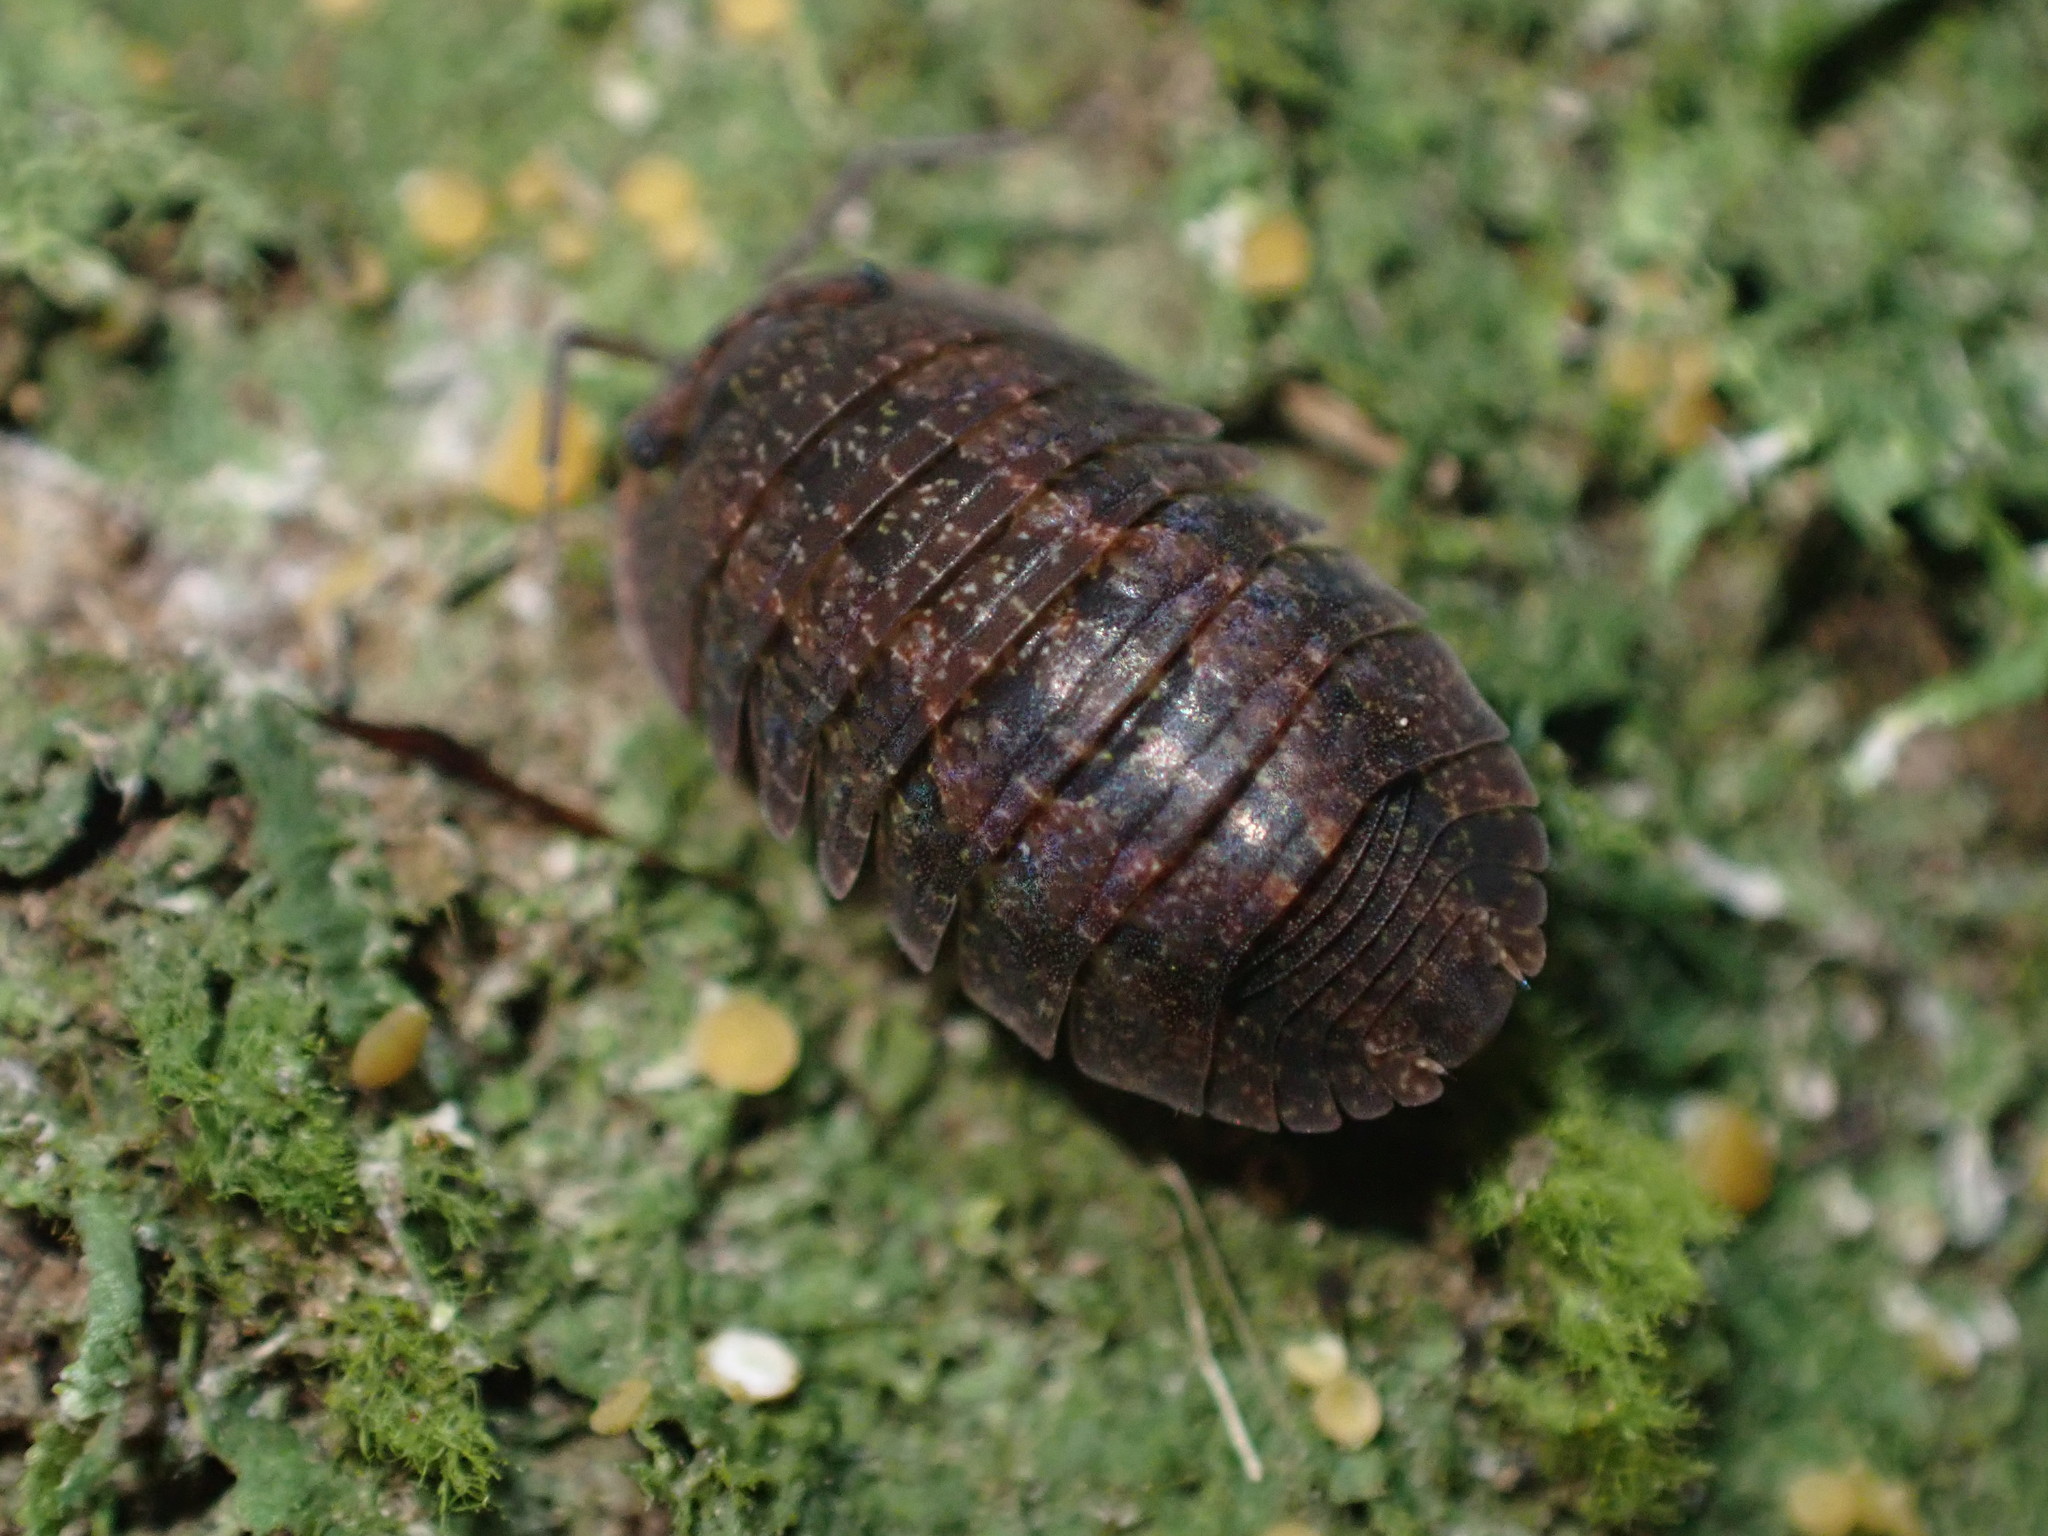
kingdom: Animalia
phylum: Arthropoda
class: Malacostraca
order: Isopoda
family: Armadillidae
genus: Cubaris
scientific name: Cubaris tarangensis
